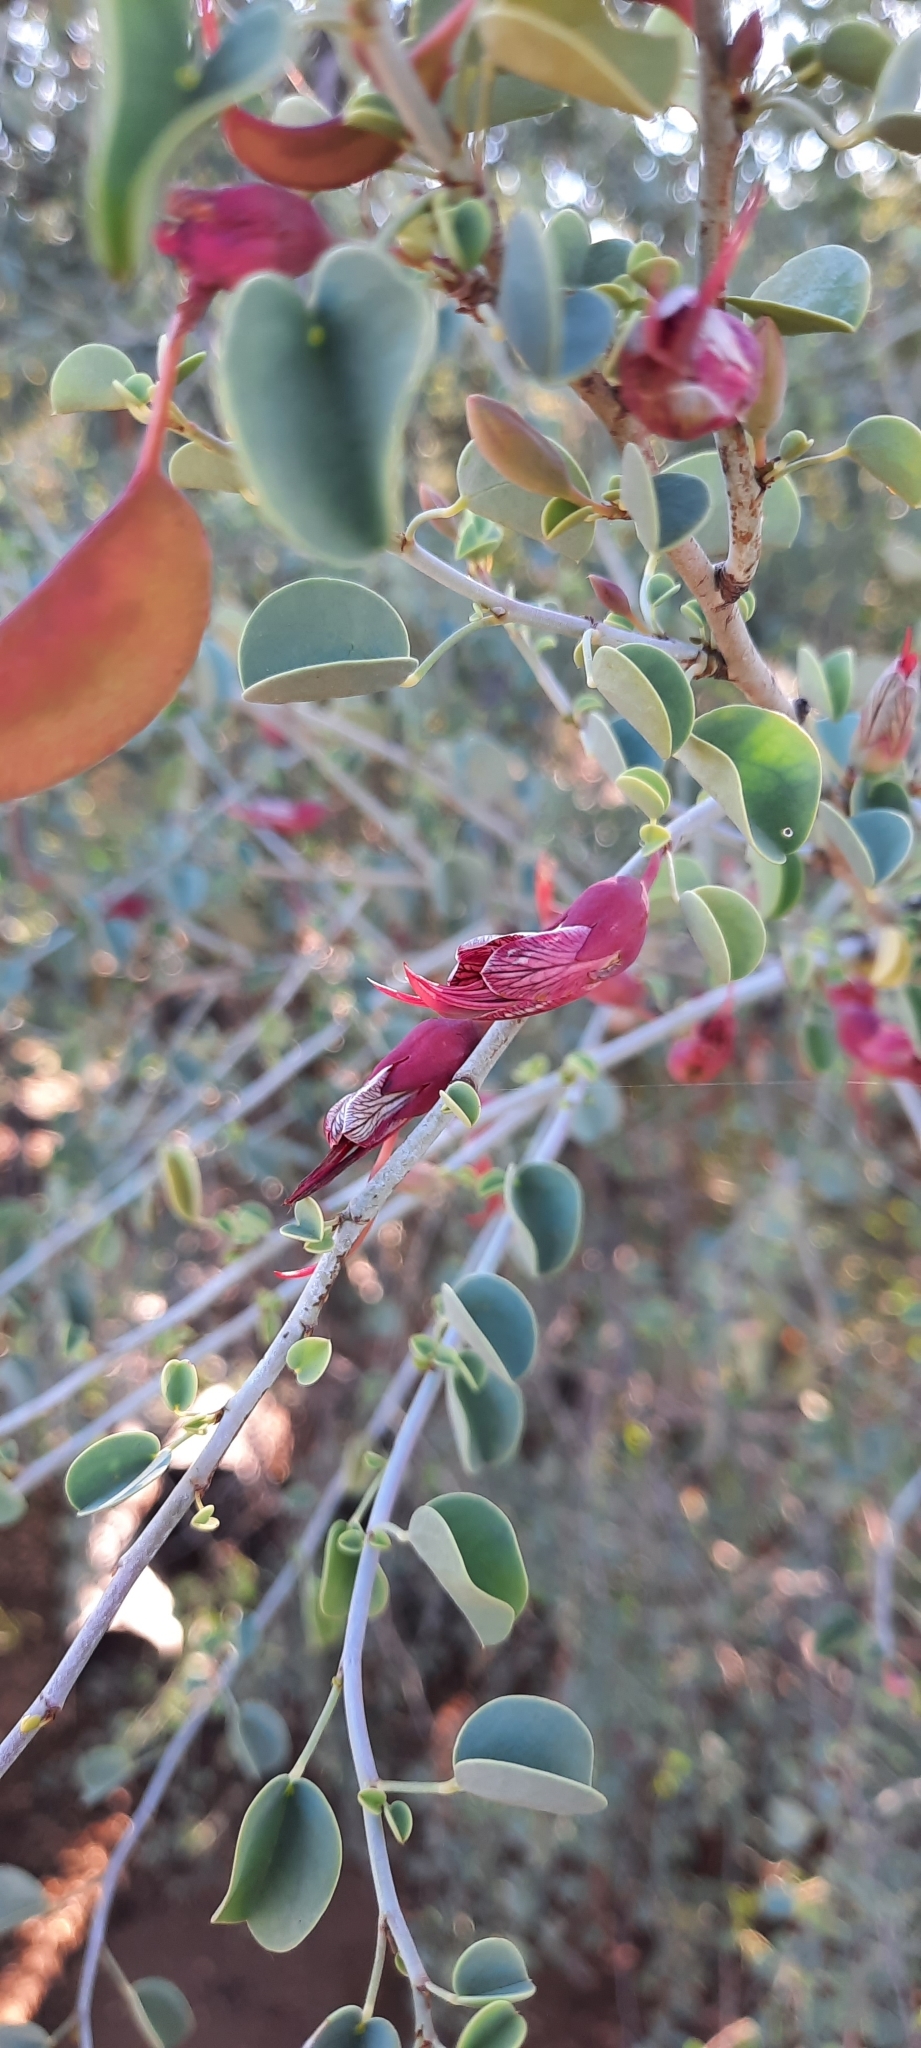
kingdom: Plantae
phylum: Tracheophyta
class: Magnoliopsida
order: Fabales
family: Fabaceae
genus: Adenolobus
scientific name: Adenolobus garipensis
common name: Butterfly-leaf
